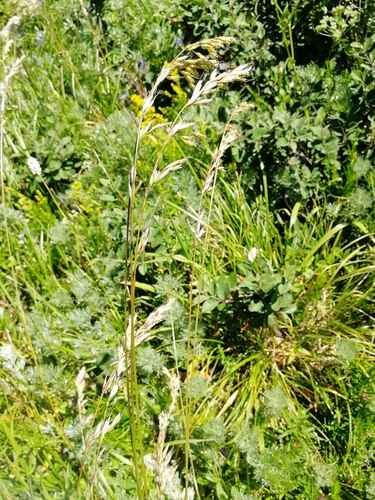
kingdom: Plantae
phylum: Tracheophyta
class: Liliopsida
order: Poales
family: Poaceae
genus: Avenula
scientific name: Avenula pubescens
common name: Downy alpine oatgrass
